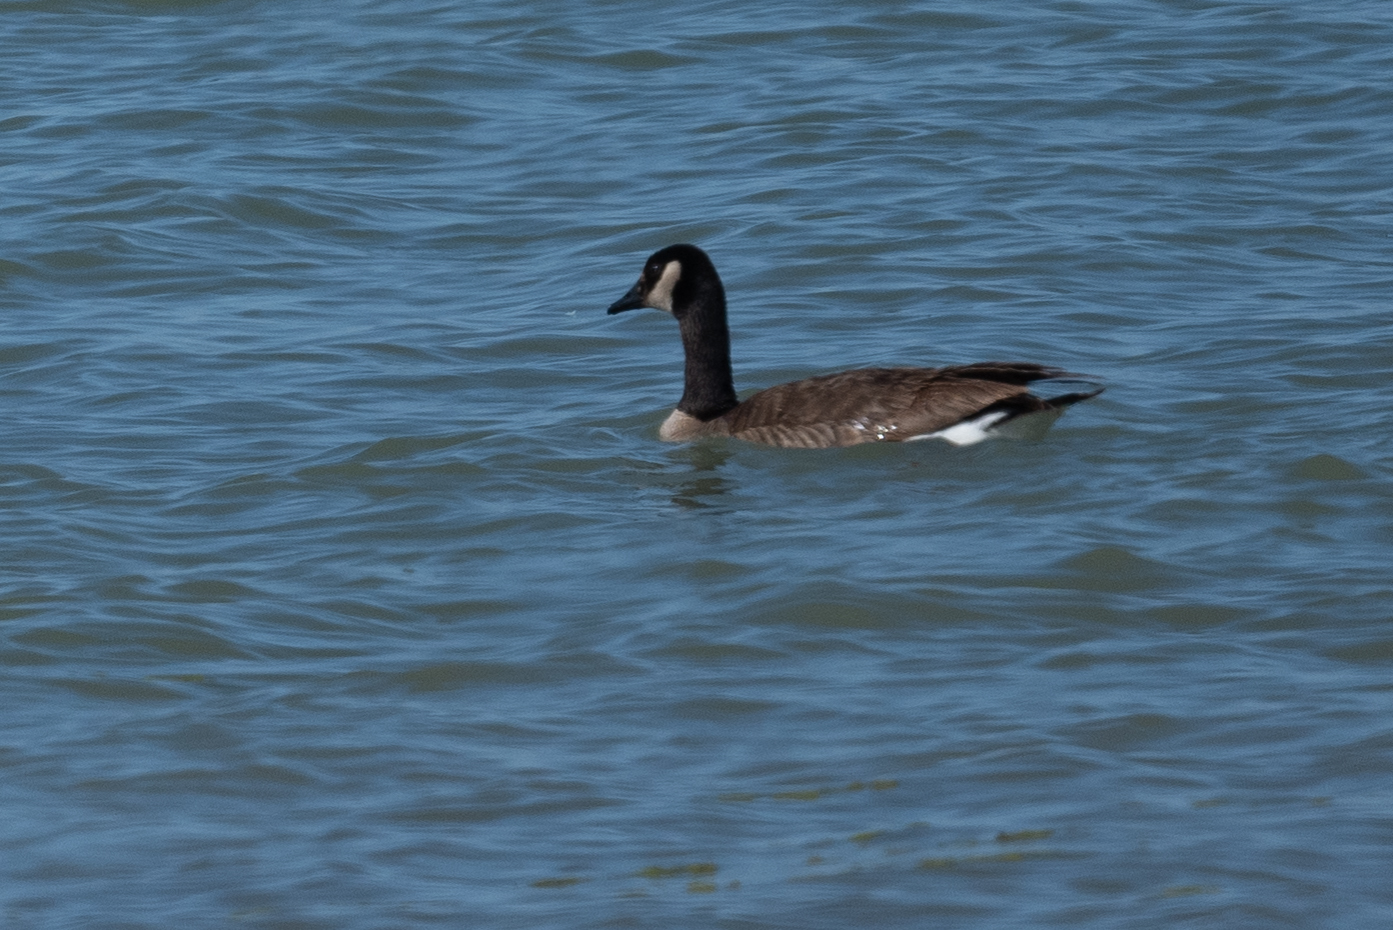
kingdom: Animalia
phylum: Chordata
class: Aves
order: Anseriformes
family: Anatidae
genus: Branta
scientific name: Branta canadensis
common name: Canada goose
